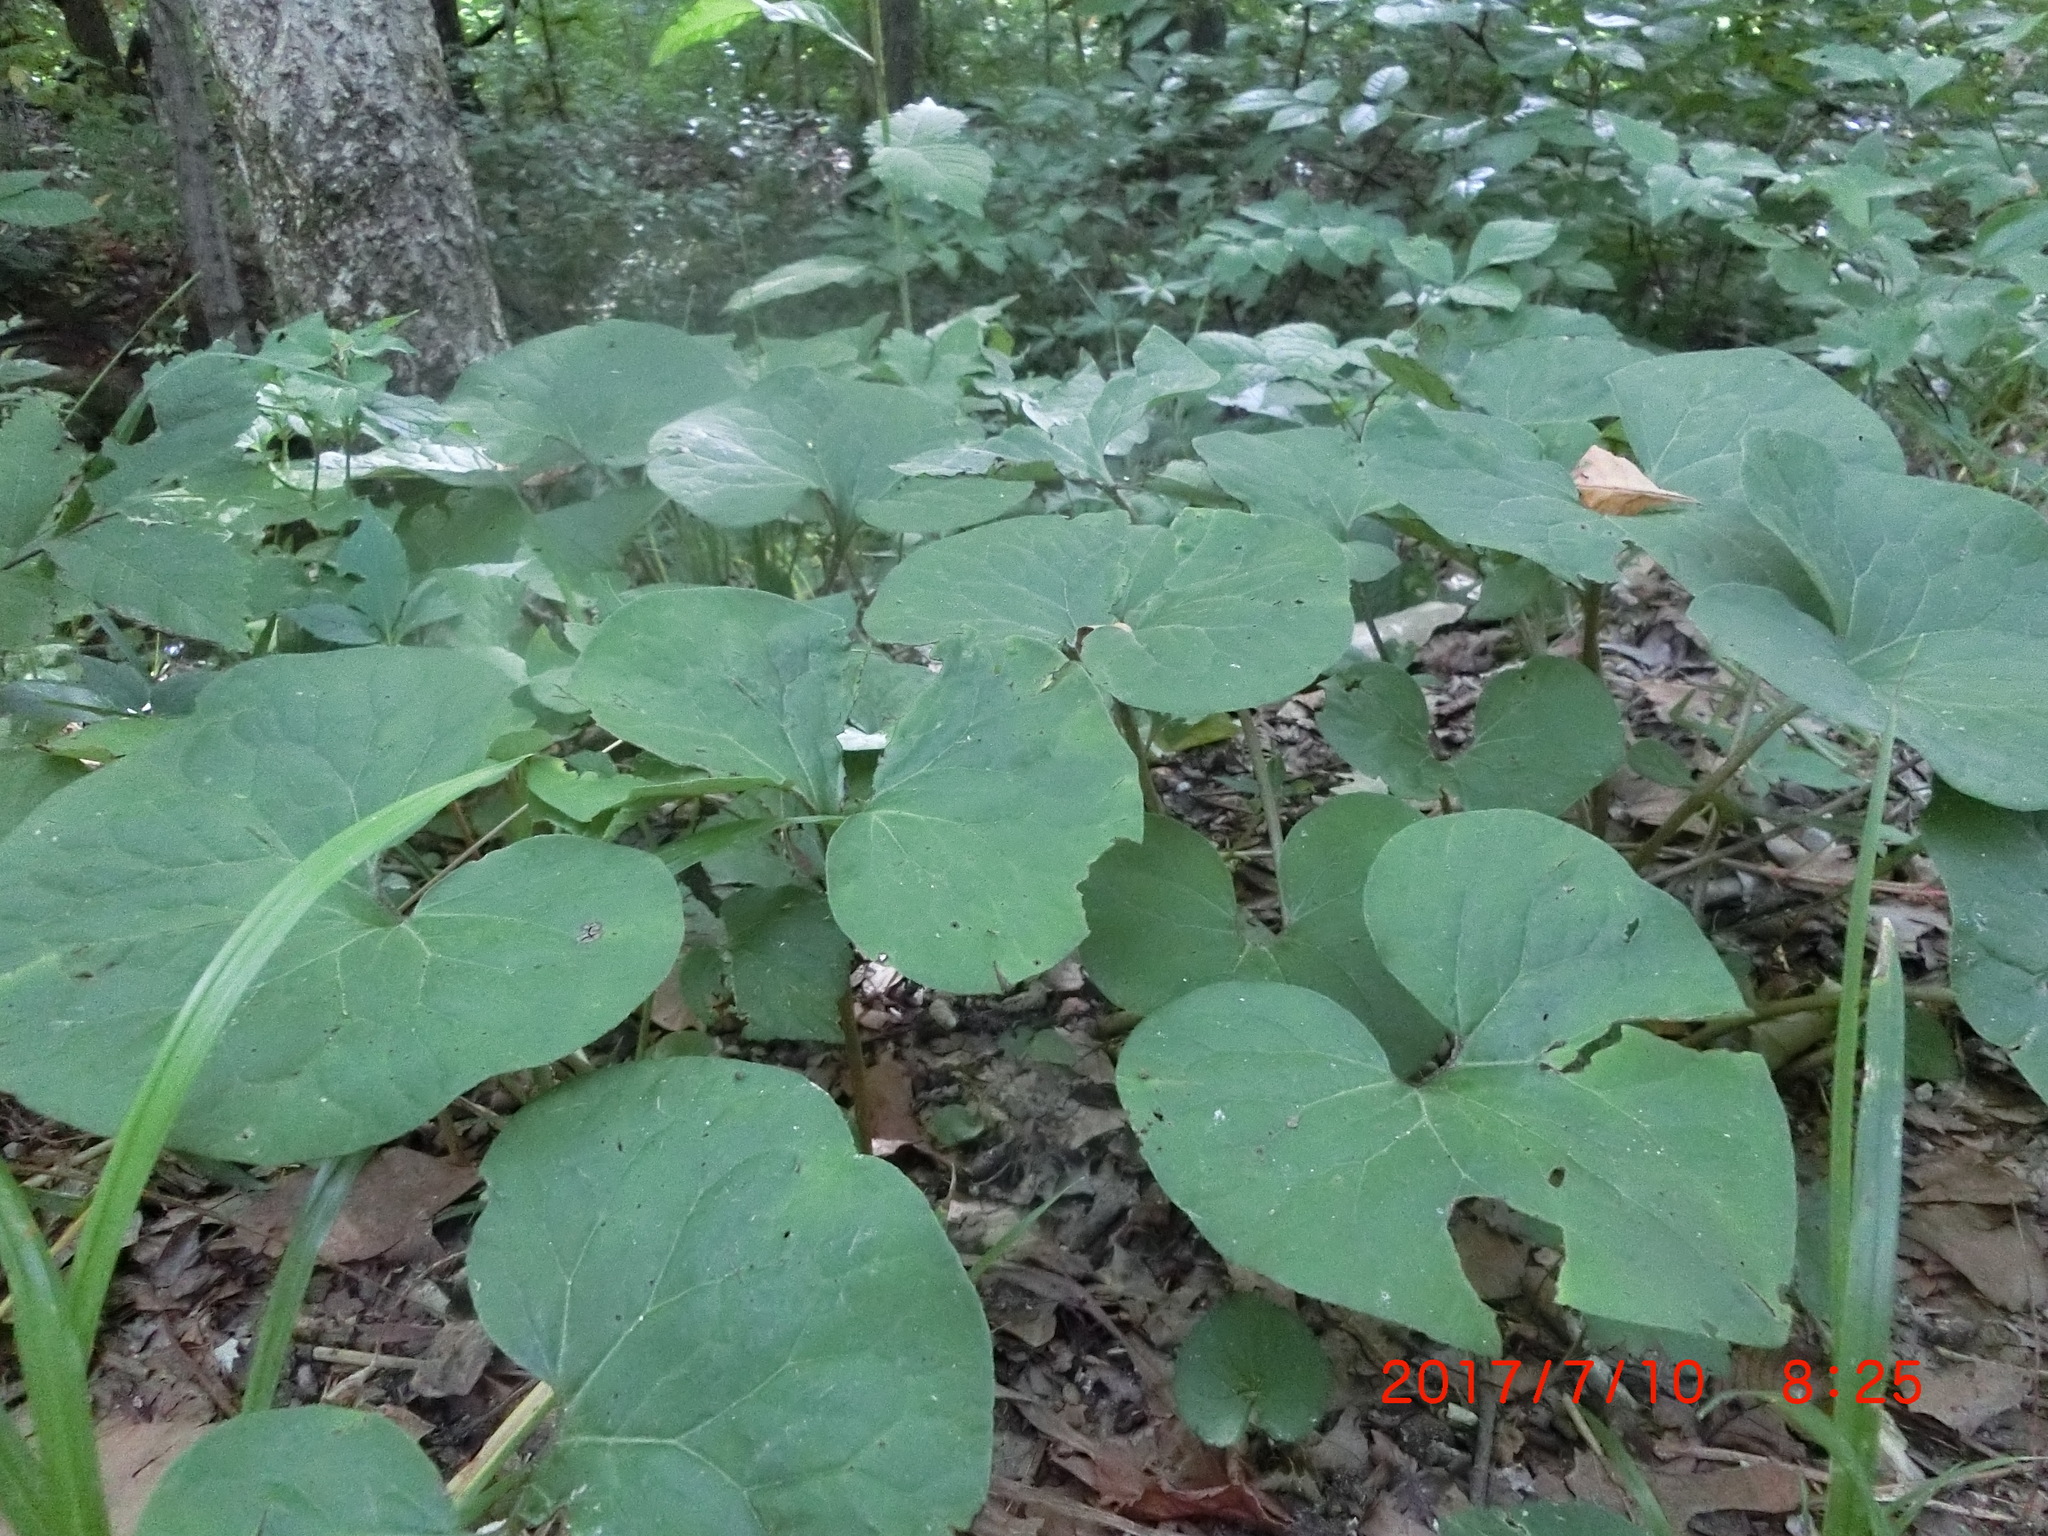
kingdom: Plantae
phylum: Tracheophyta
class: Magnoliopsida
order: Piperales
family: Aristolochiaceae
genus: Asarum
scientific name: Asarum canadense
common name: Wild ginger
